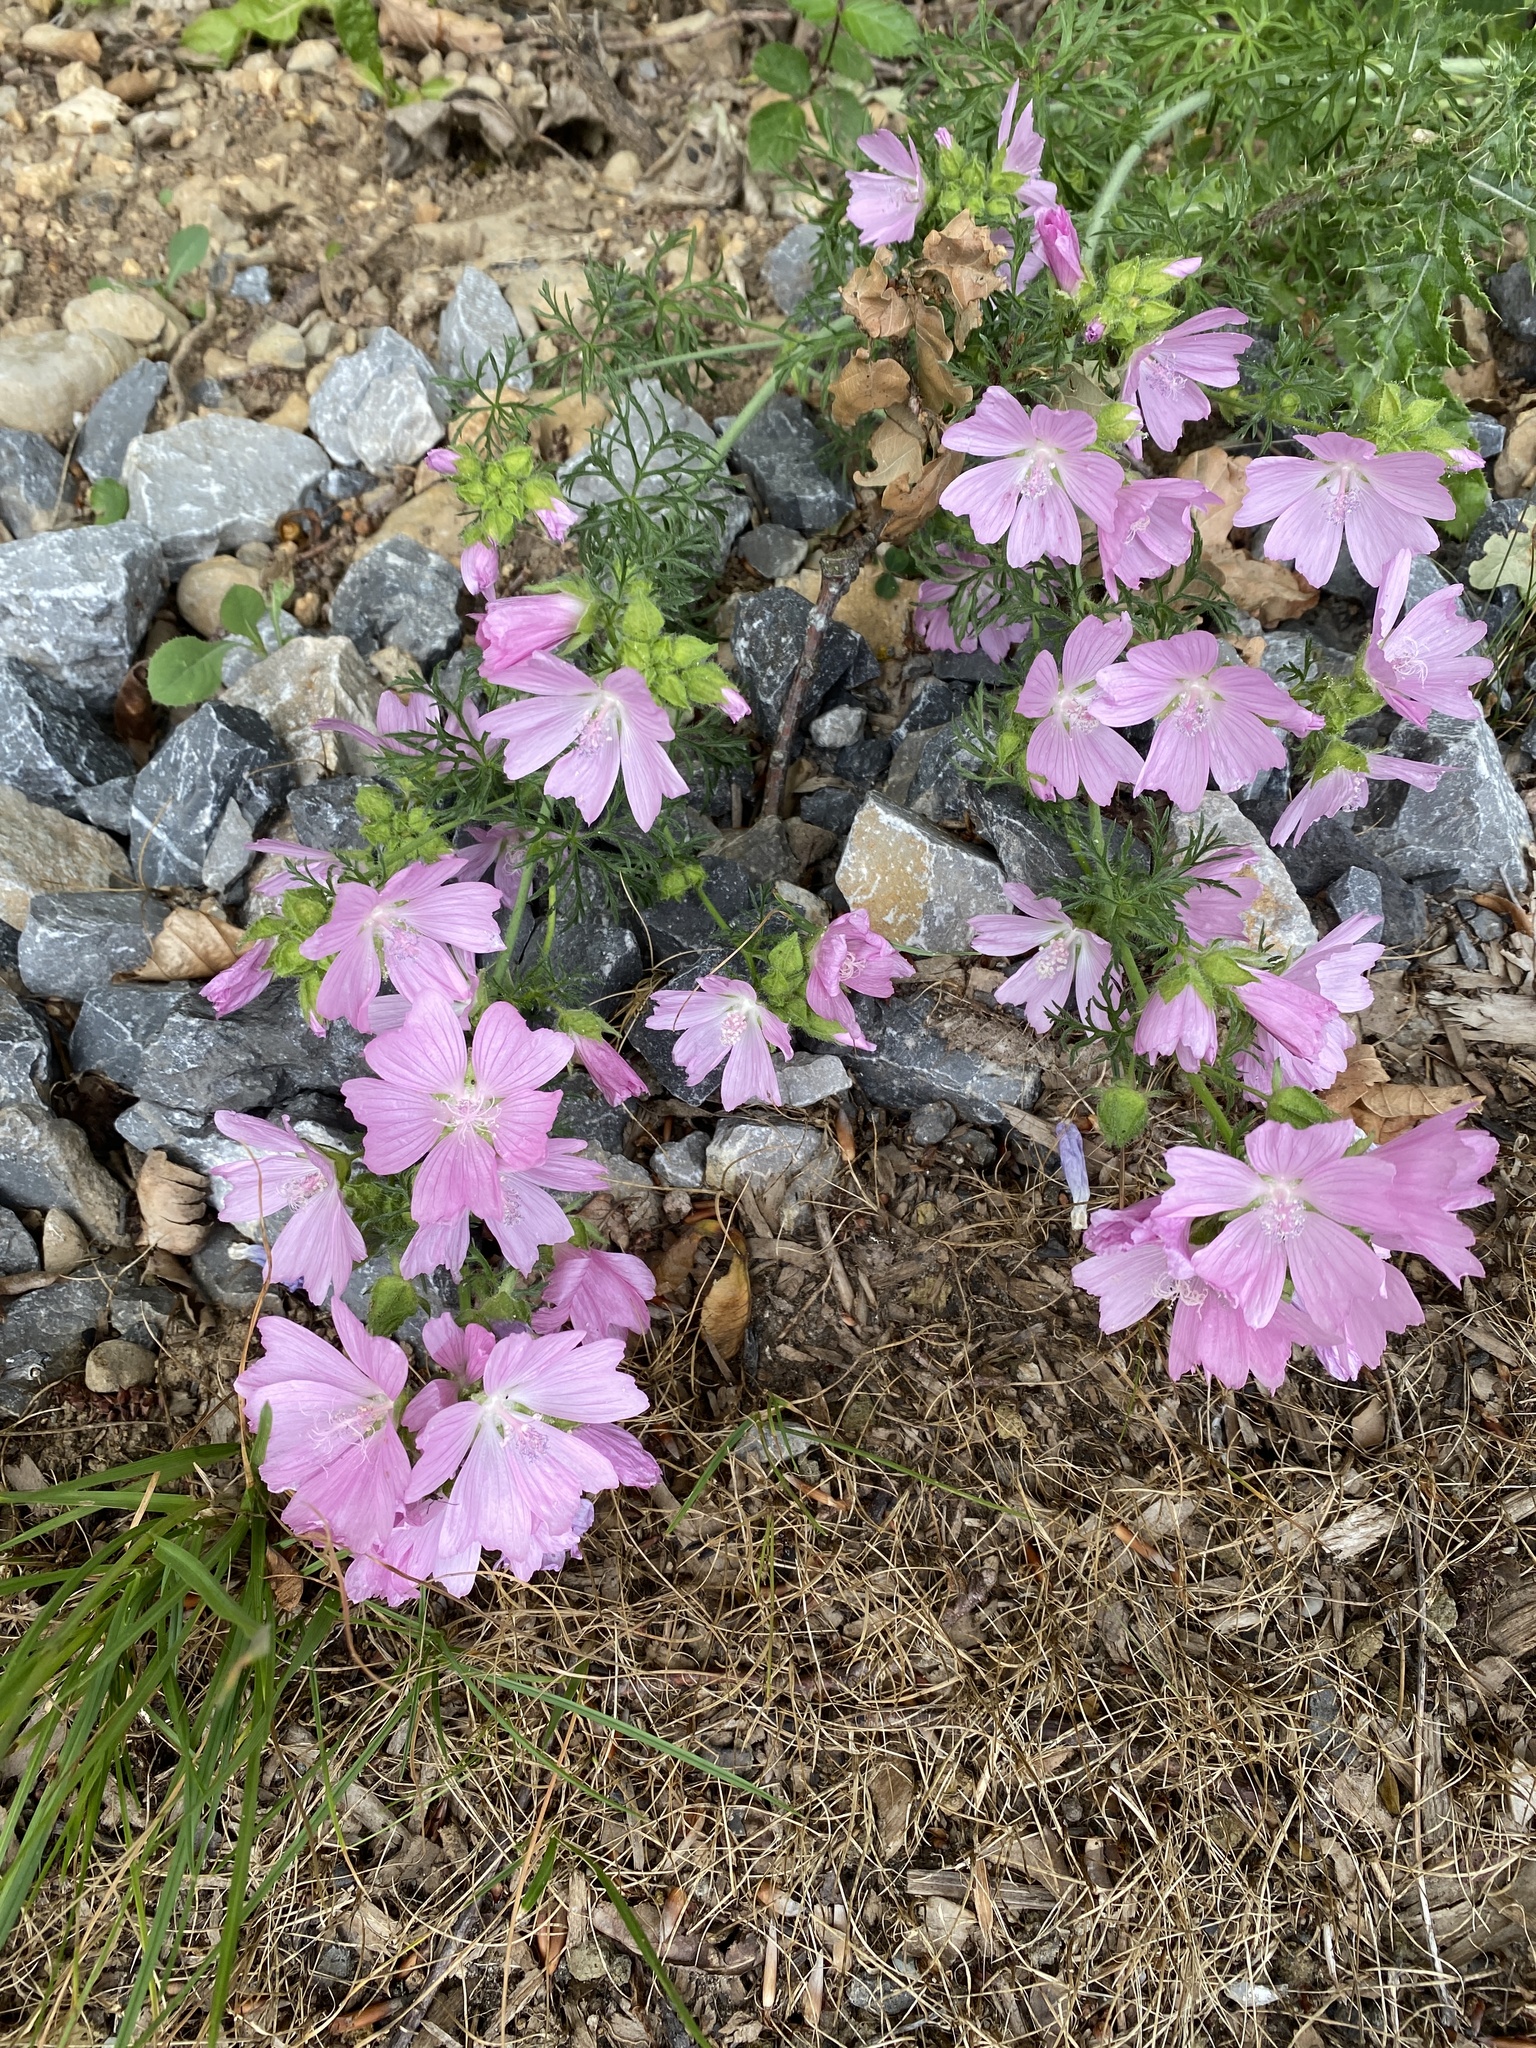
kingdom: Plantae
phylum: Tracheophyta
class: Magnoliopsida
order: Malvales
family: Malvaceae
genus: Malva
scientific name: Malva moschata
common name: Musk mallow
